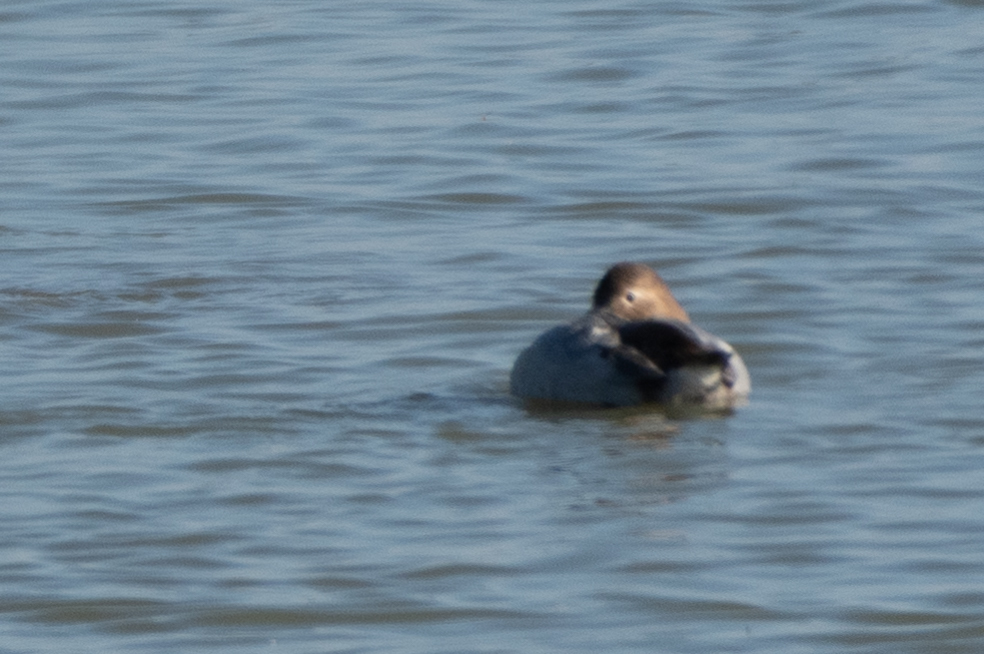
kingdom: Animalia
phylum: Chordata
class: Aves
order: Anseriformes
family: Anatidae
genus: Aythya
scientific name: Aythya valisineria
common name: Canvasback
